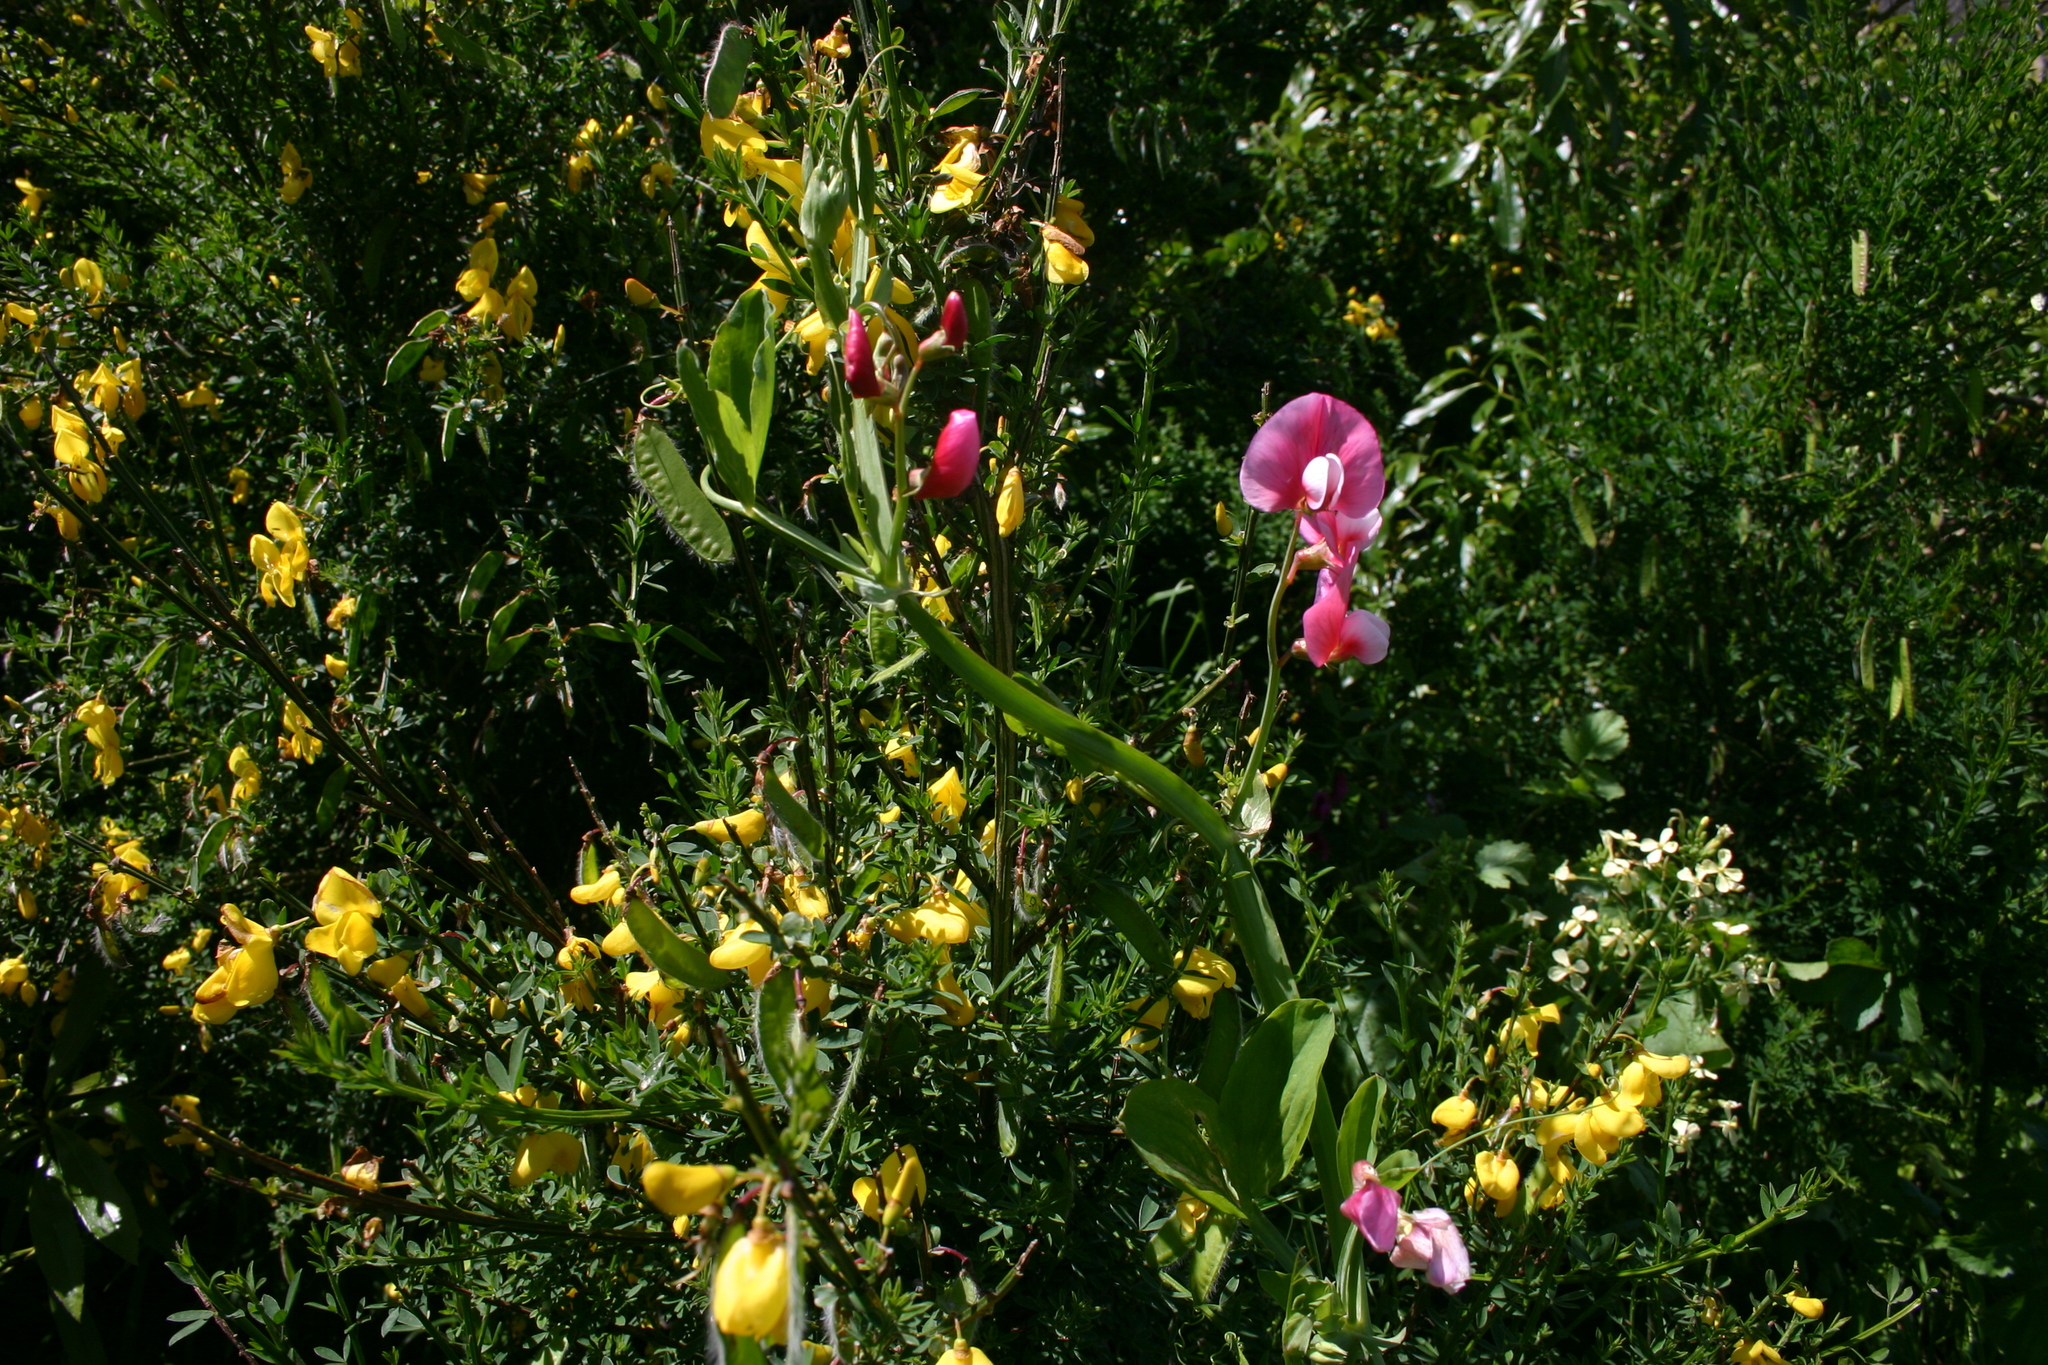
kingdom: Plantae
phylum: Tracheophyta
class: Magnoliopsida
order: Fabales
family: Fabaceae
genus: Lathyrus
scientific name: Lathyrus tingitanus
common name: Tangier pea
